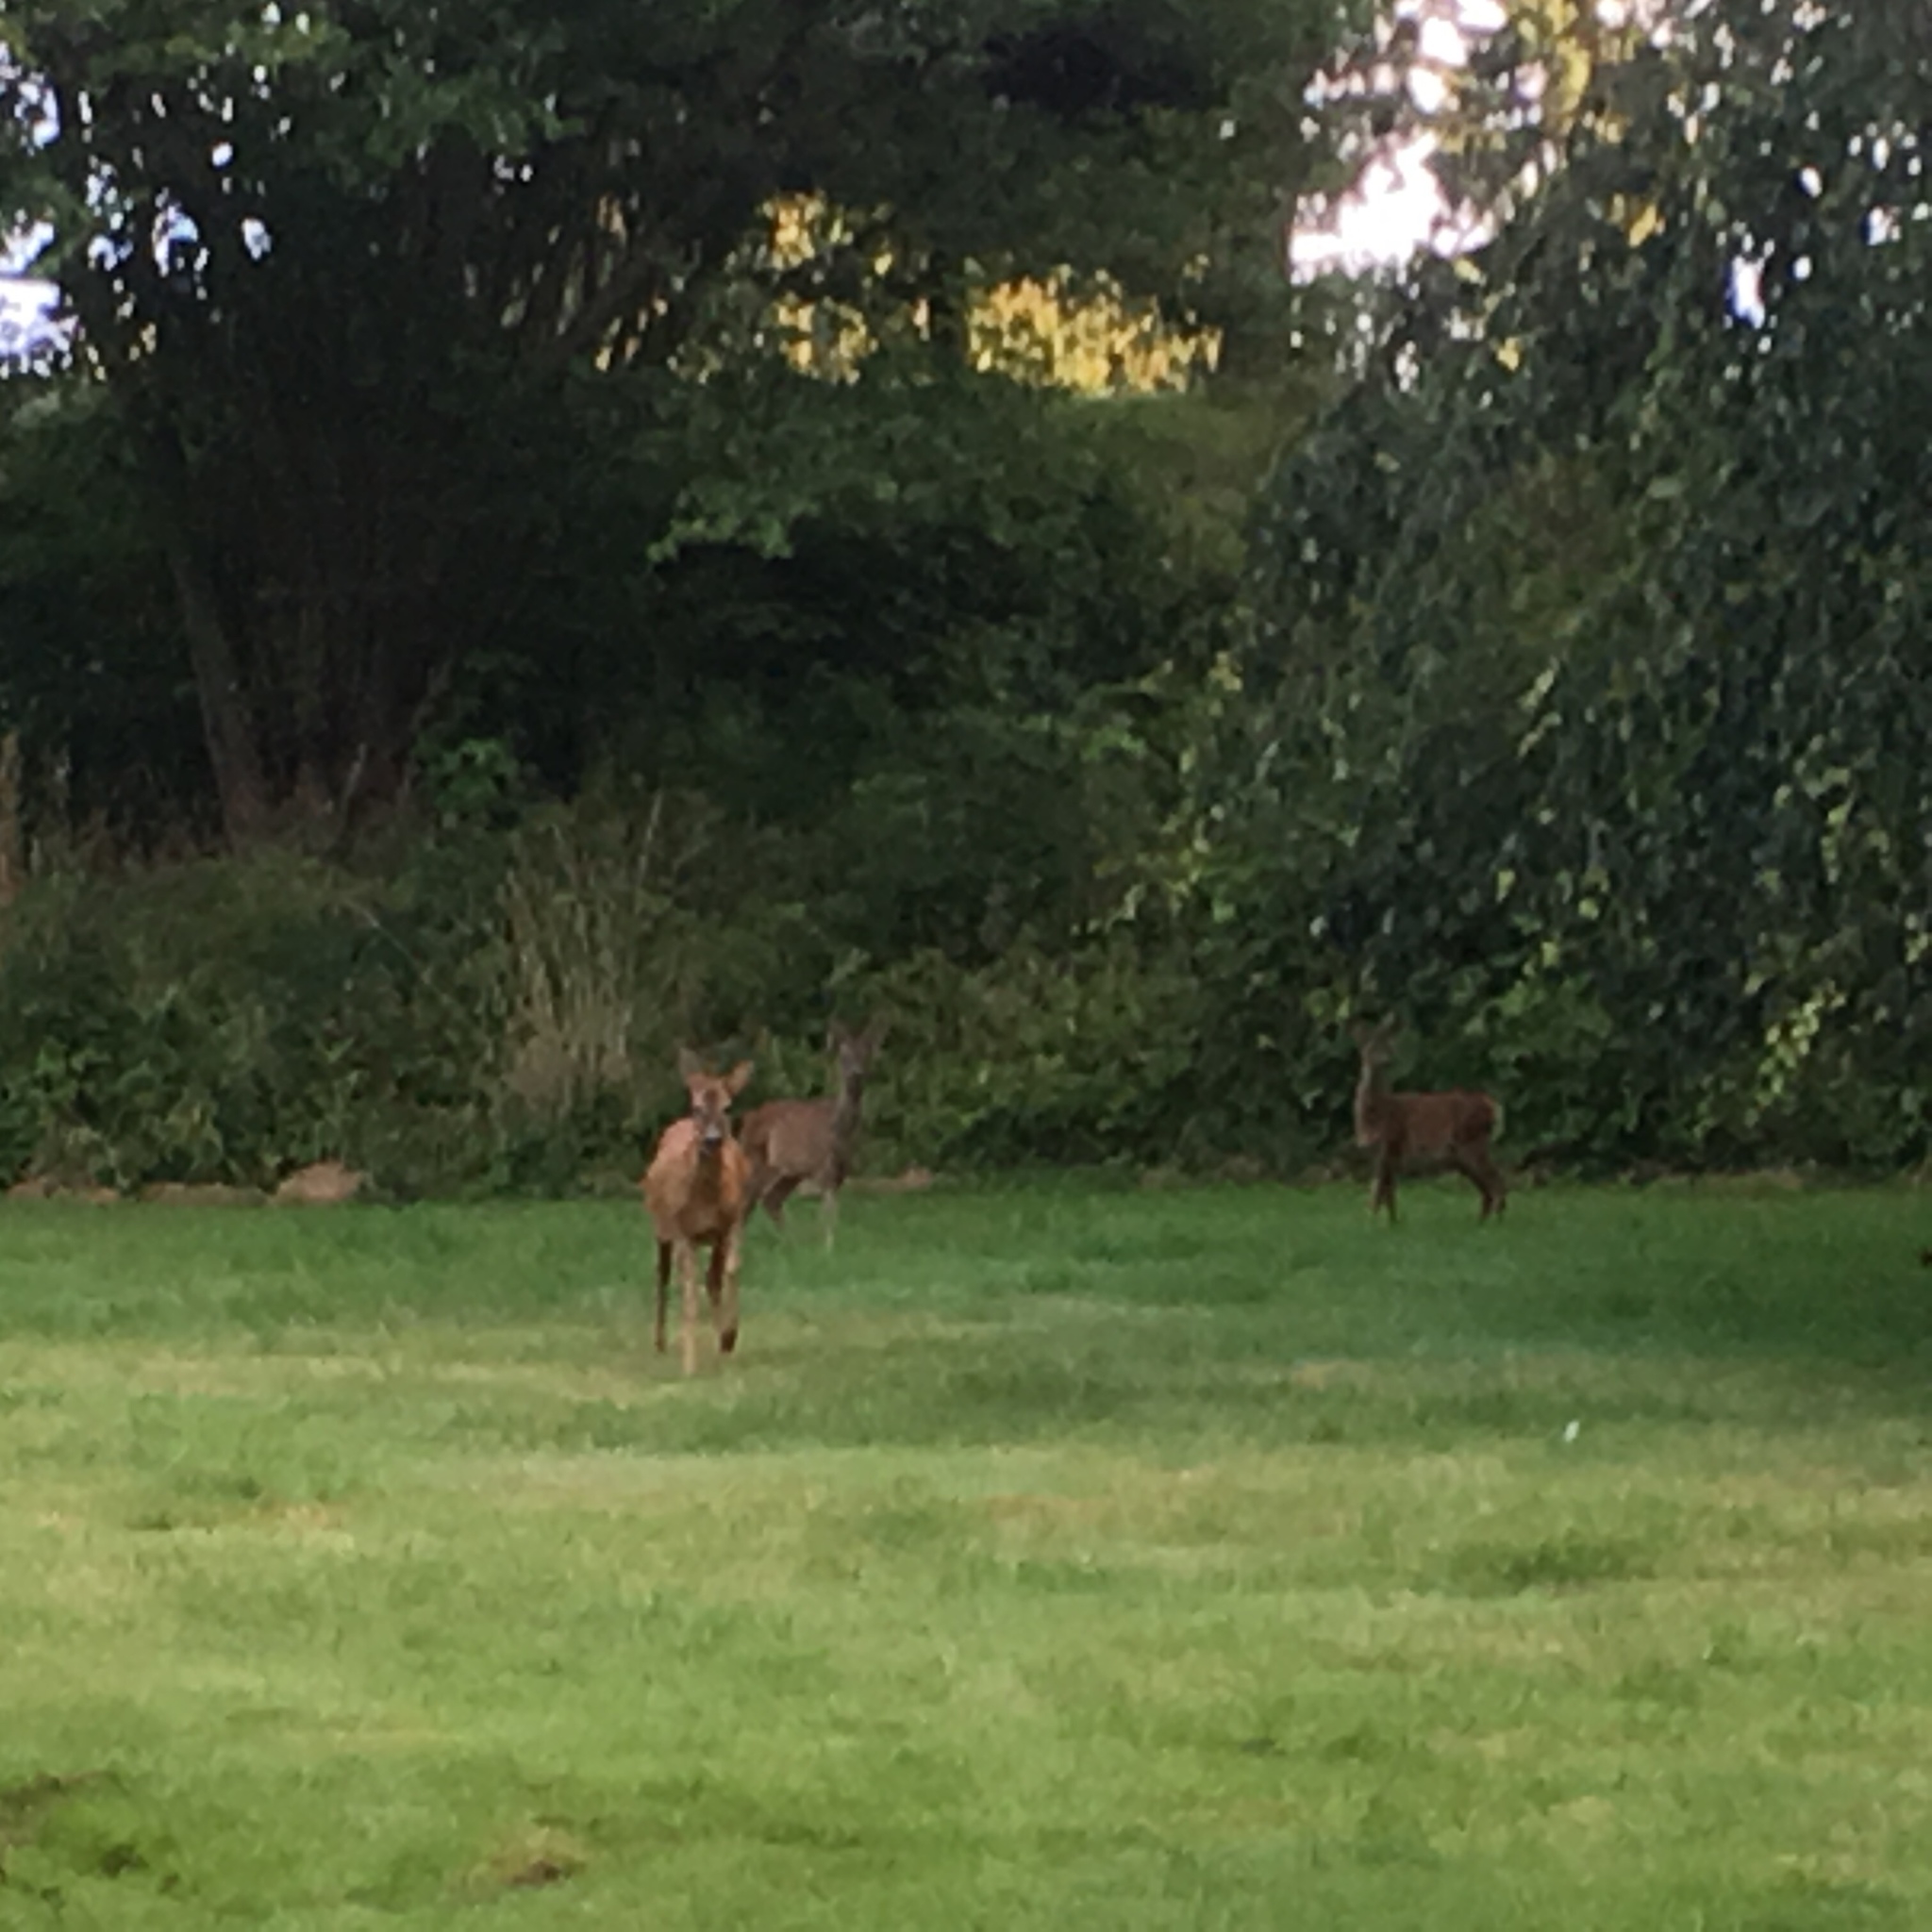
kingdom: Animalia
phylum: Chordata
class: Mammalia
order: Artiodactyla
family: Cervidae
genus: Capreolus
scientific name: Capreolus capreolus
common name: Western roe deer
